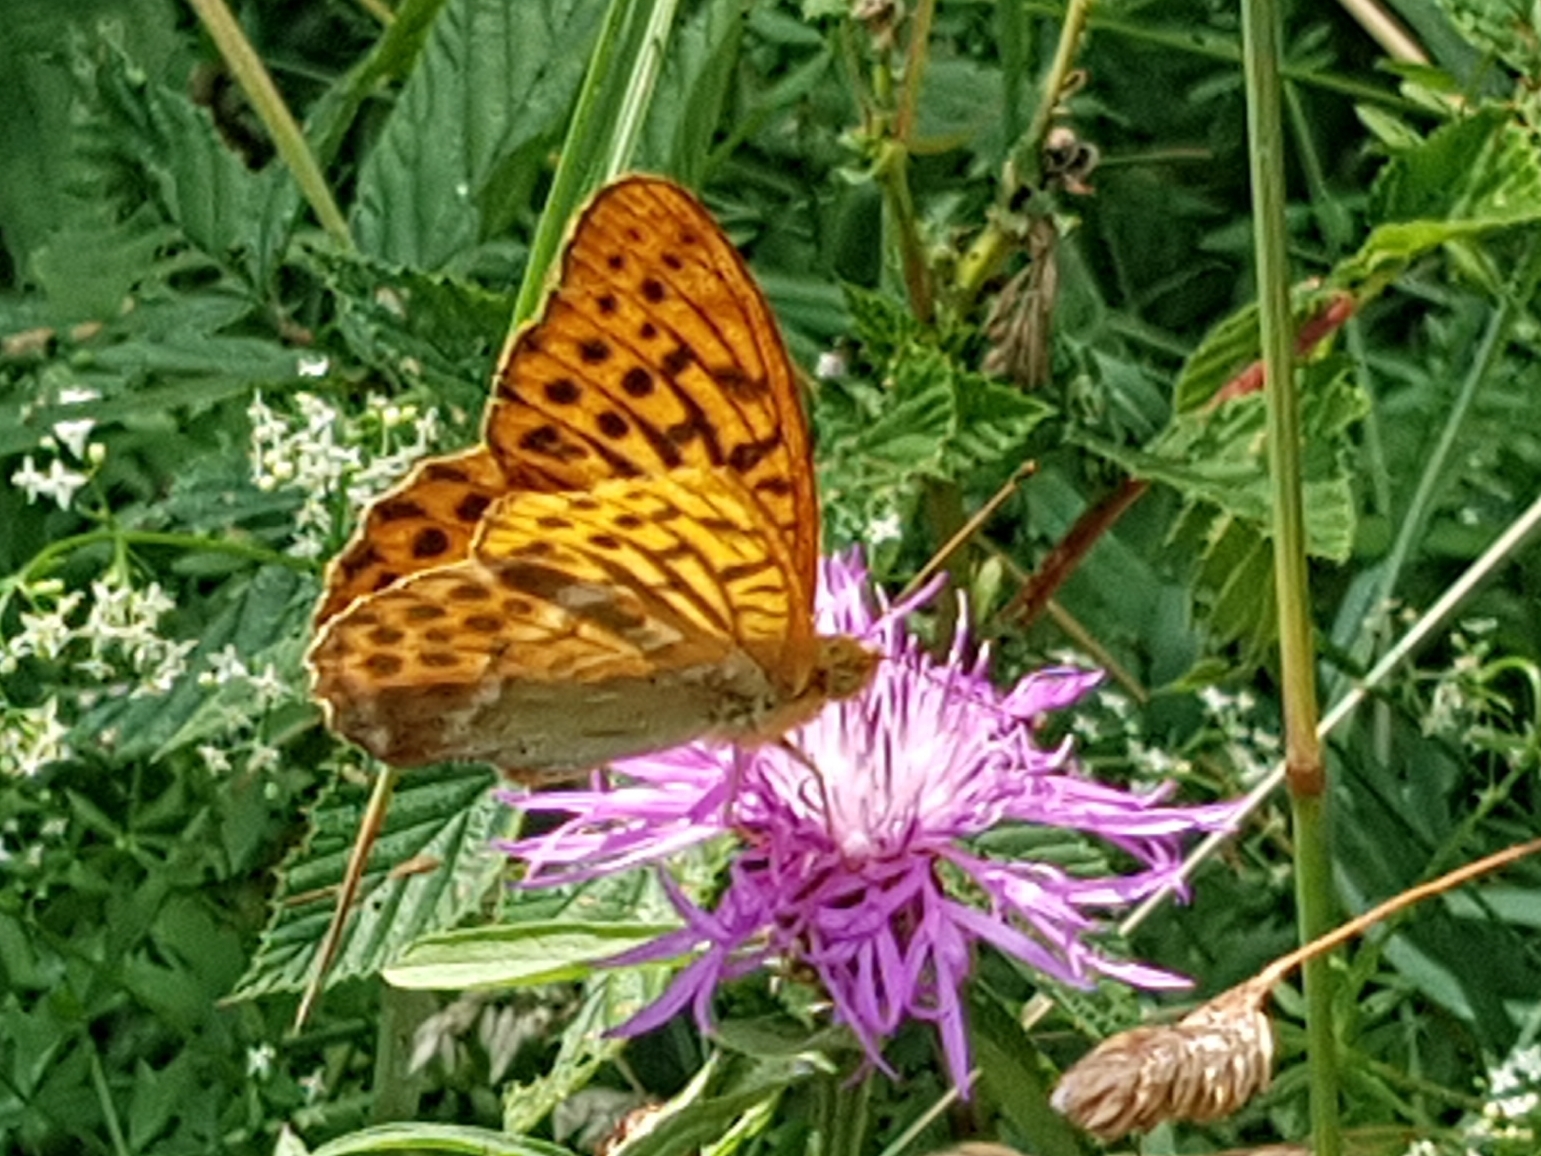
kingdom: Animalia
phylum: Arthropoda
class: Insecta
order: Lepidoptera
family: Nymphalidae
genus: Argynnis
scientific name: Argynnis paphia
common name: Silver-washed fritillary
